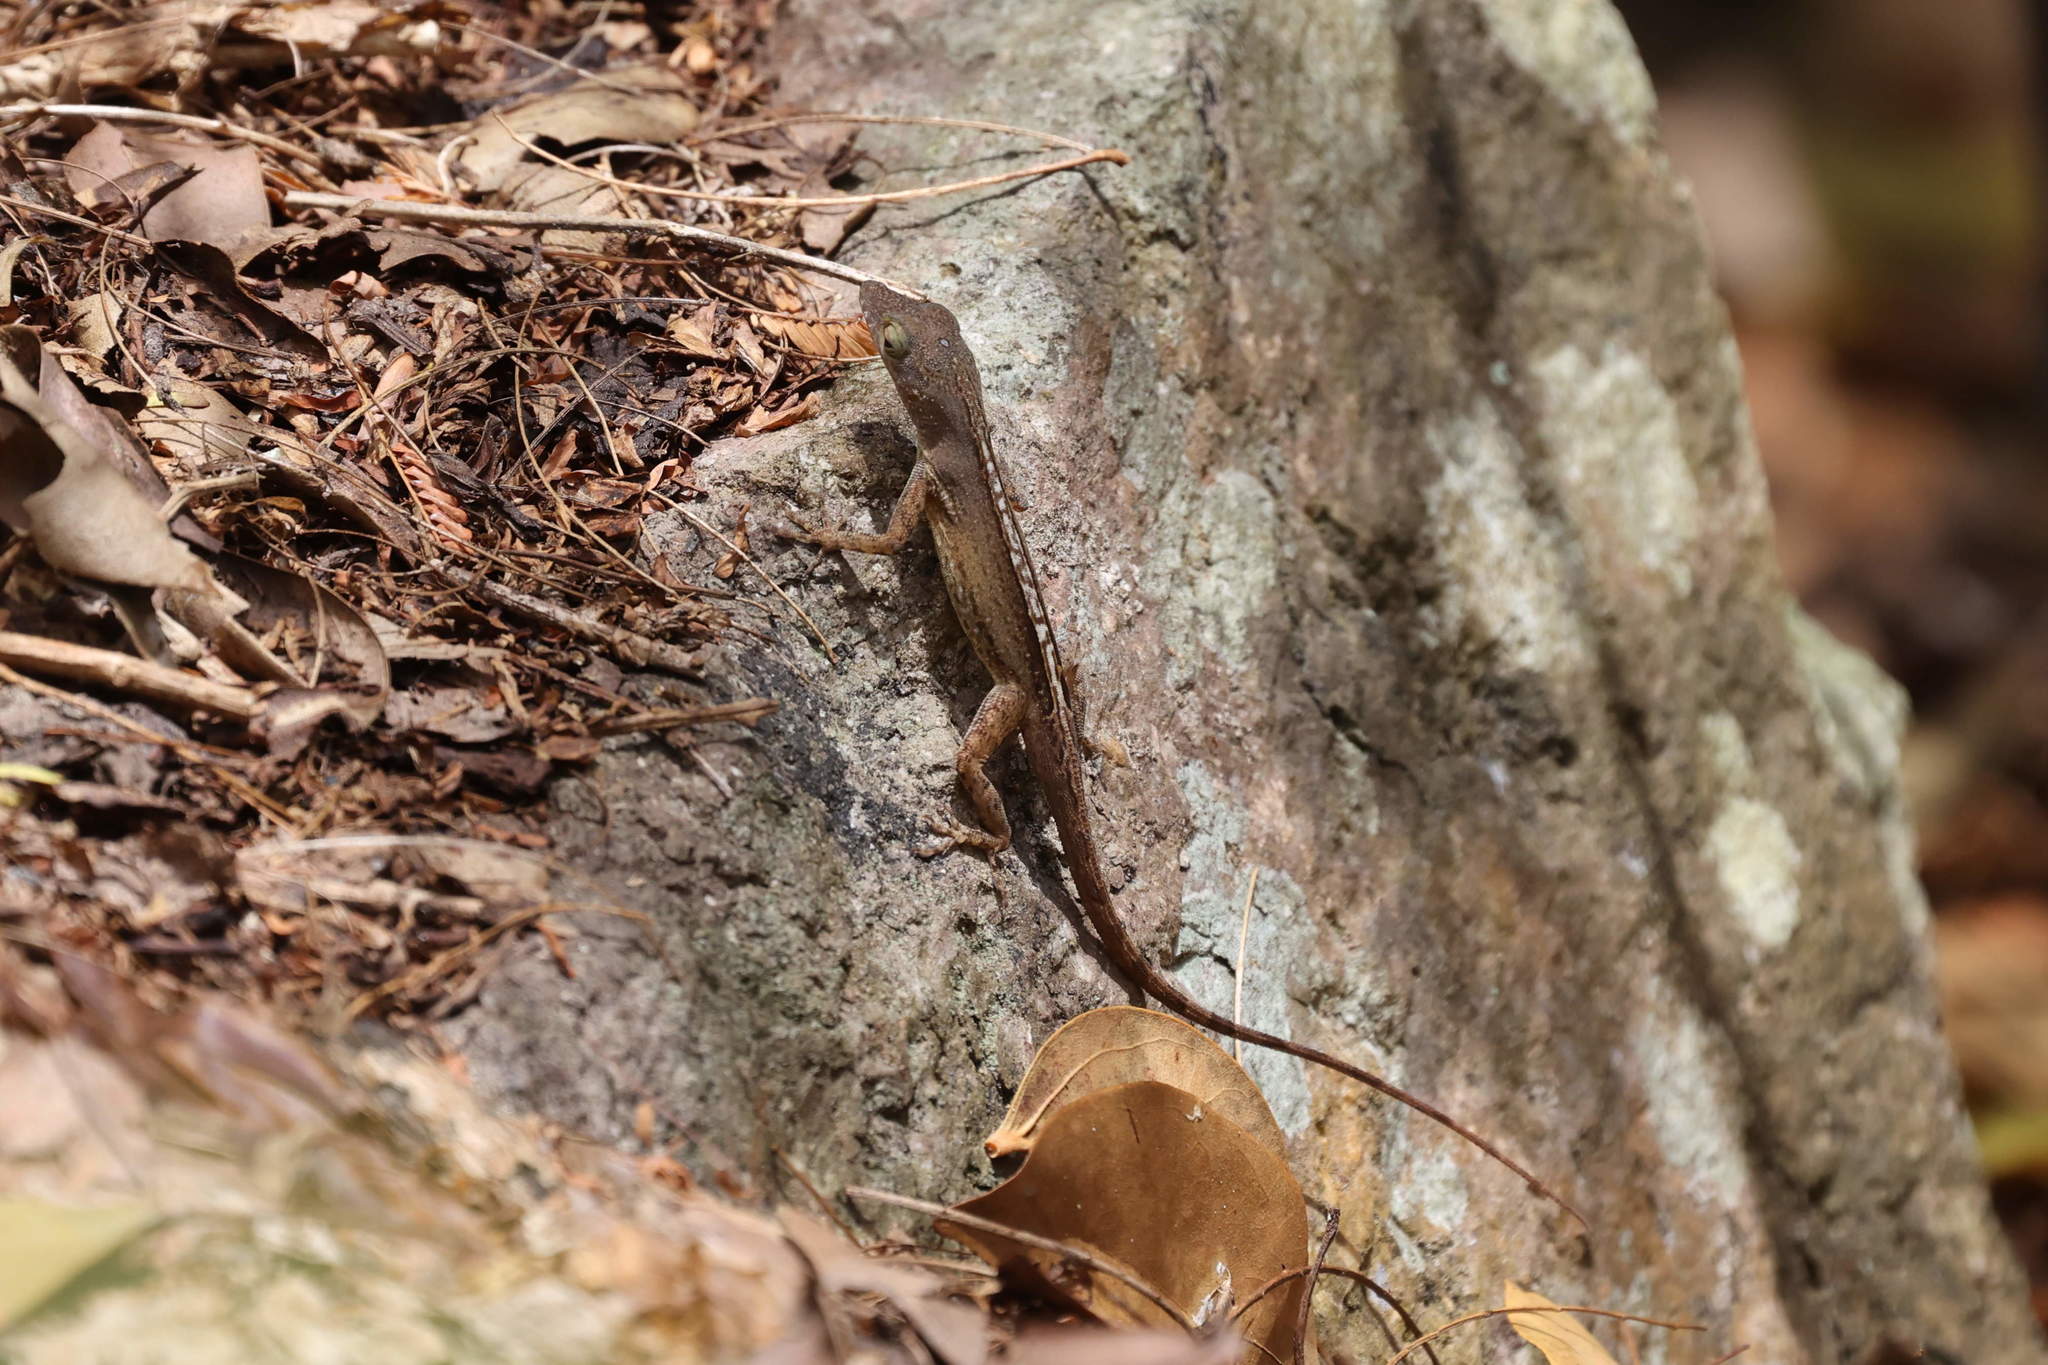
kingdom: Animalia
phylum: Chordata
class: Squamata
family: Dactyloidae
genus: Anolis
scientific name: Anolis marmoratus
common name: Guadeloupe anole
